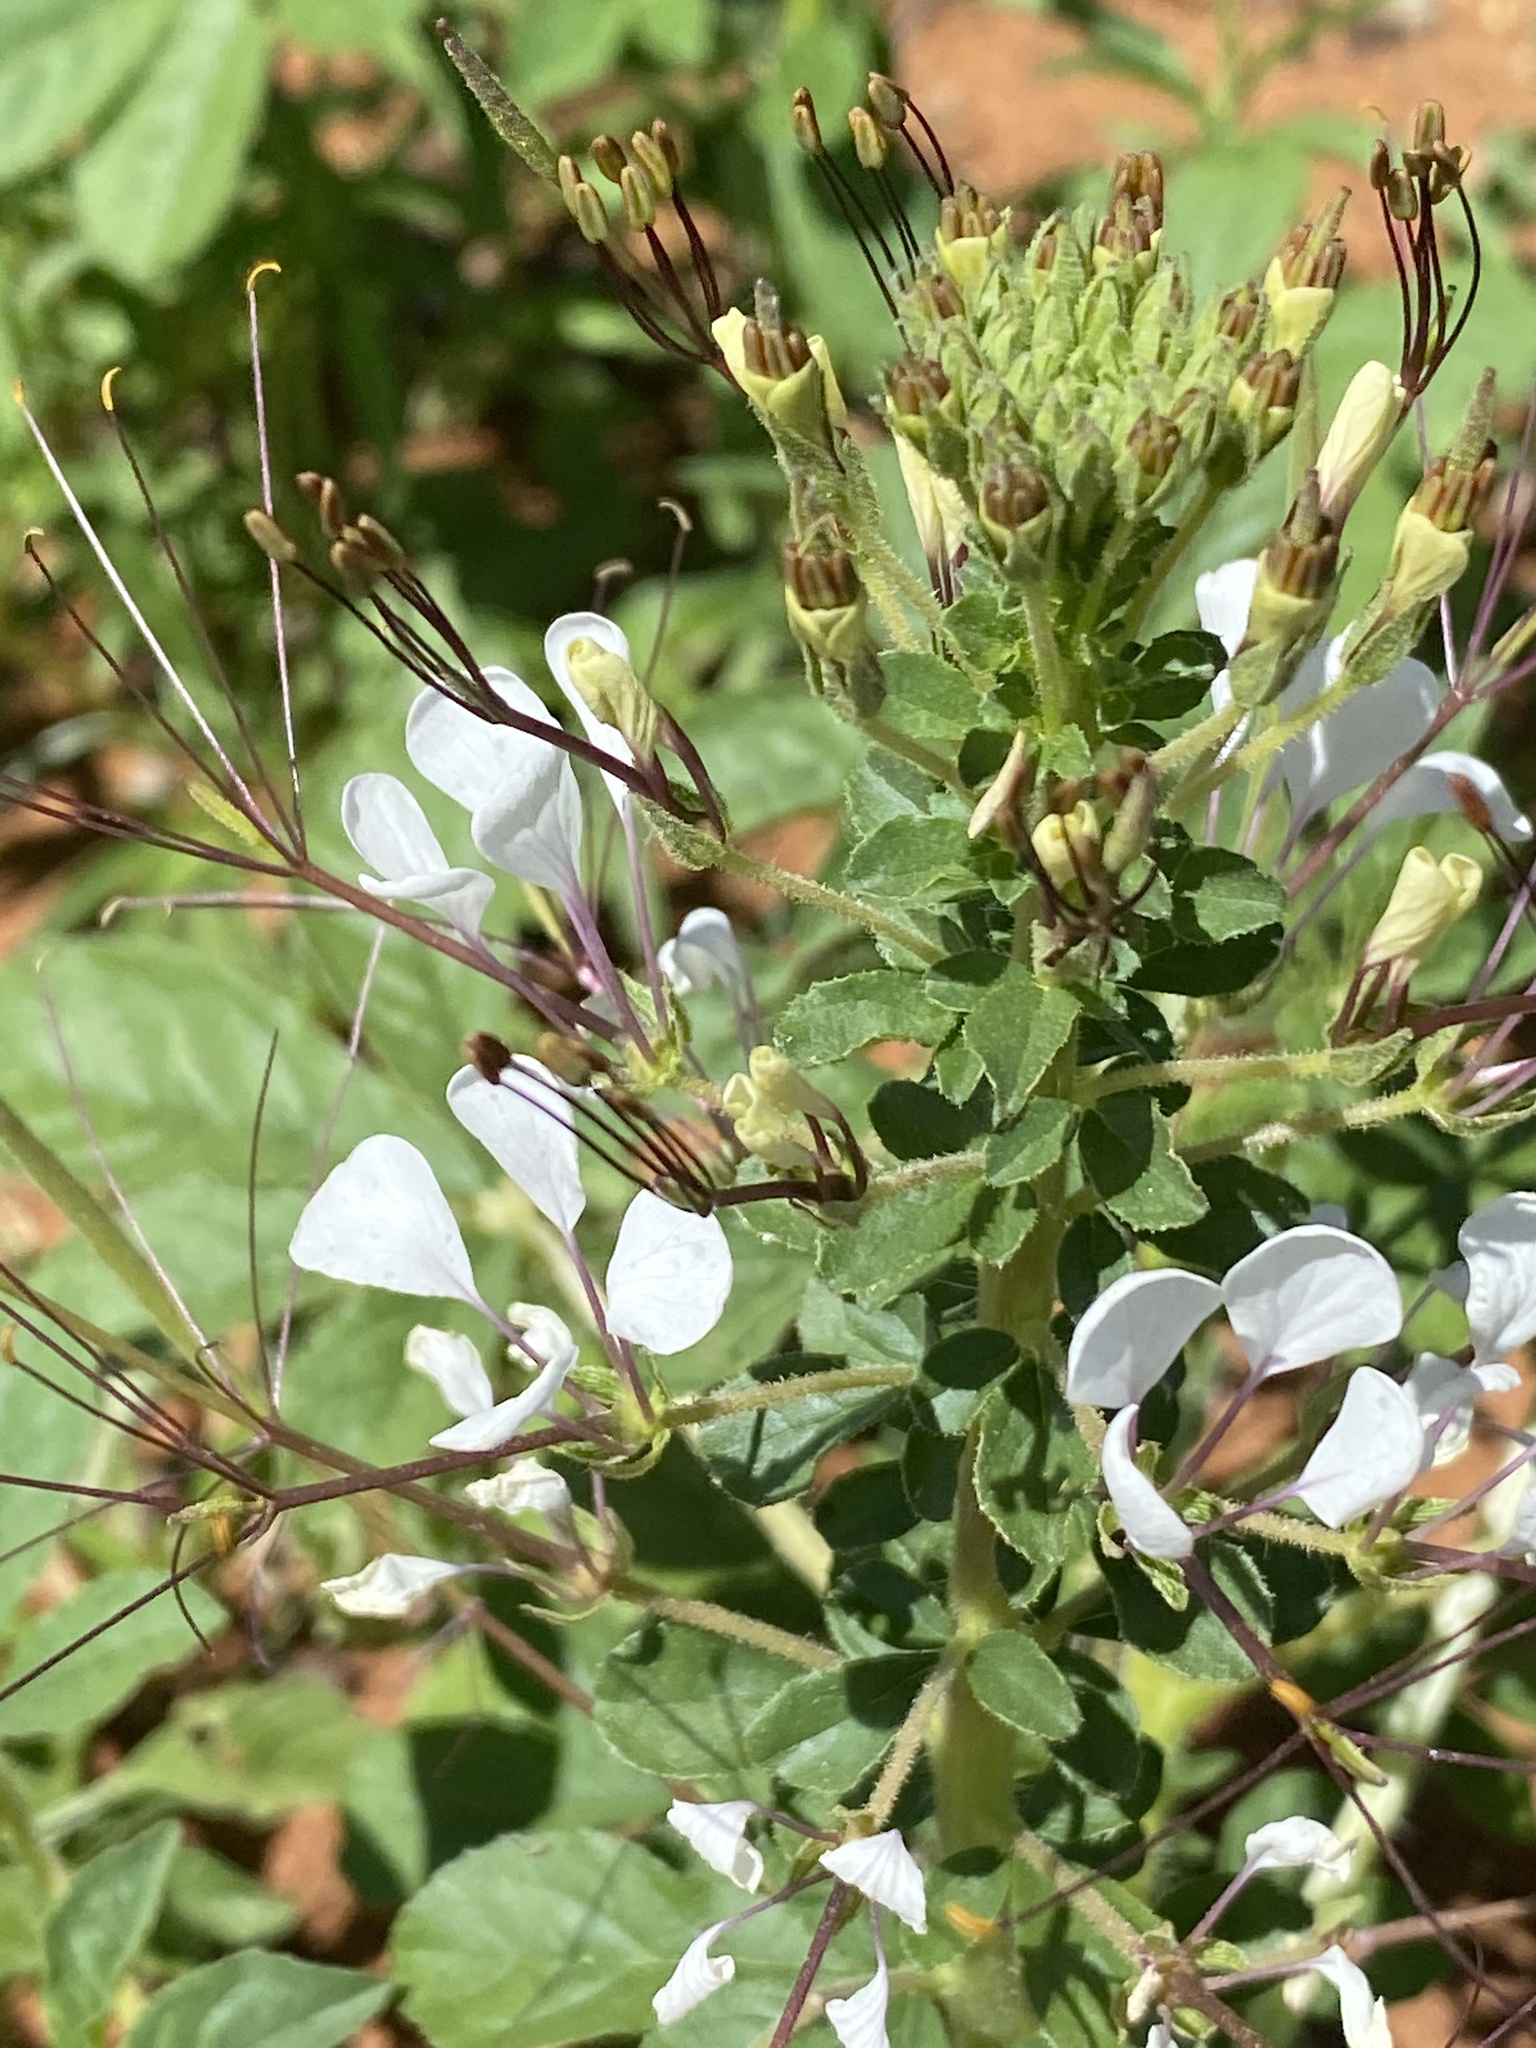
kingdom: Plantae
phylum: Tracheophyta
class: Magnoliopsida
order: Brassicales
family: Cleomaceae
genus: Gynandropsis
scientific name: Gynandropsis gynandra
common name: Spiderwisp
